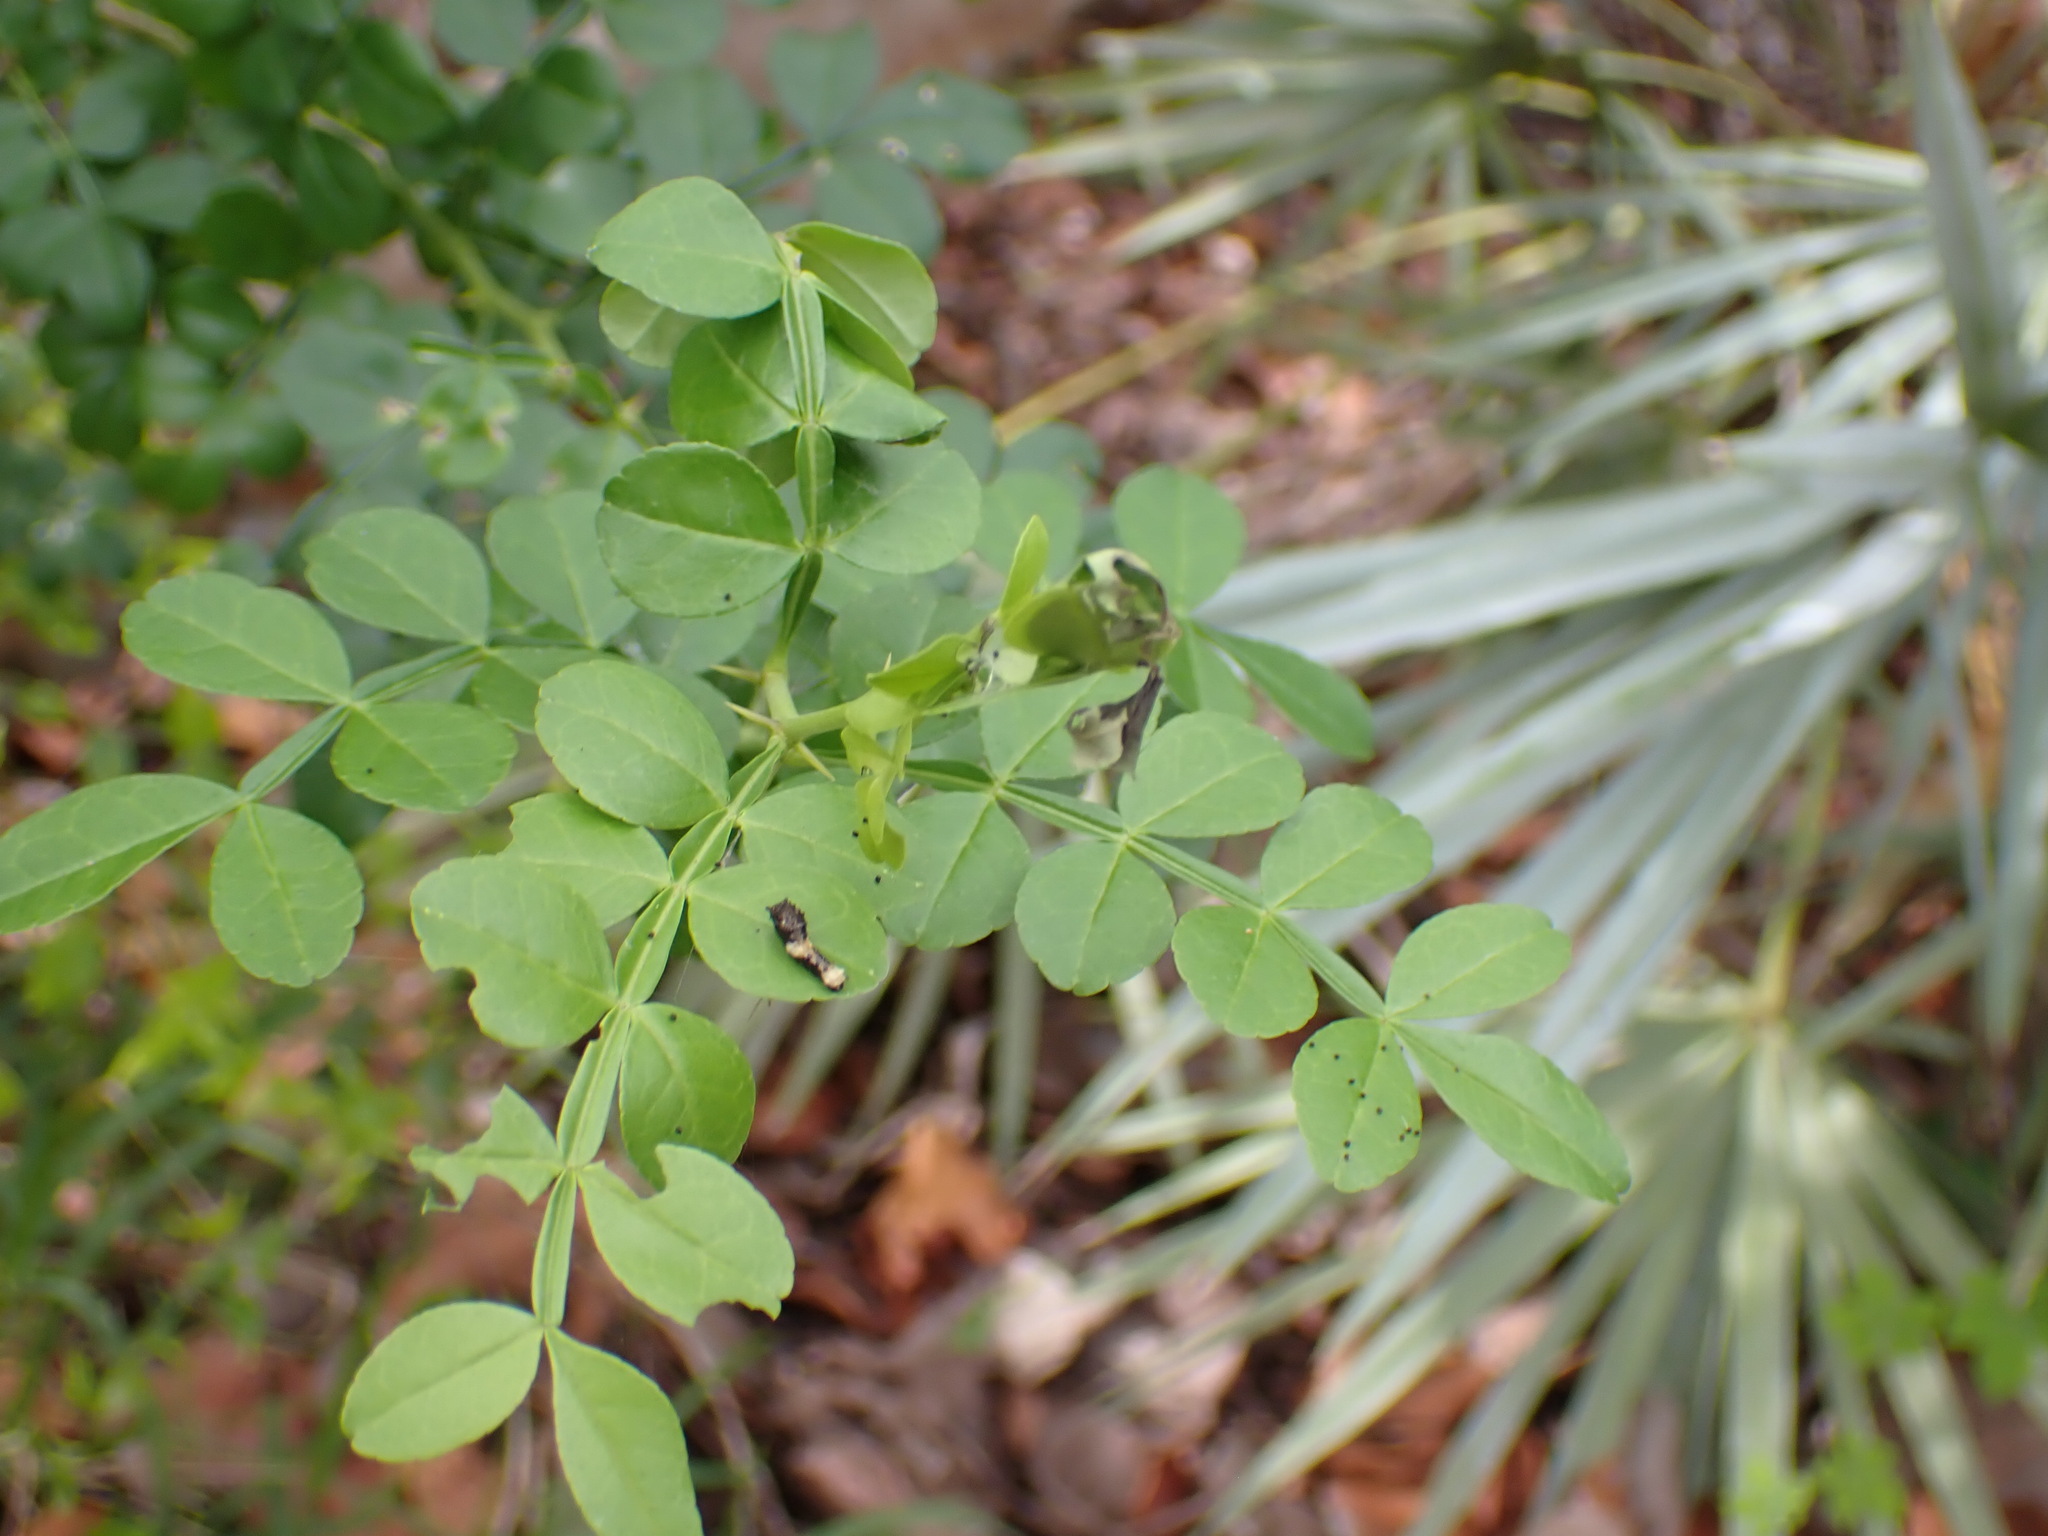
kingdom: Plantae
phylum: Tracheophyta
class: Magnoliopsida
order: Sapindales
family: Rutaceae
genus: Zanthoxylum
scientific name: Zanthoxylum fagara
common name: Lime prickly-ash
